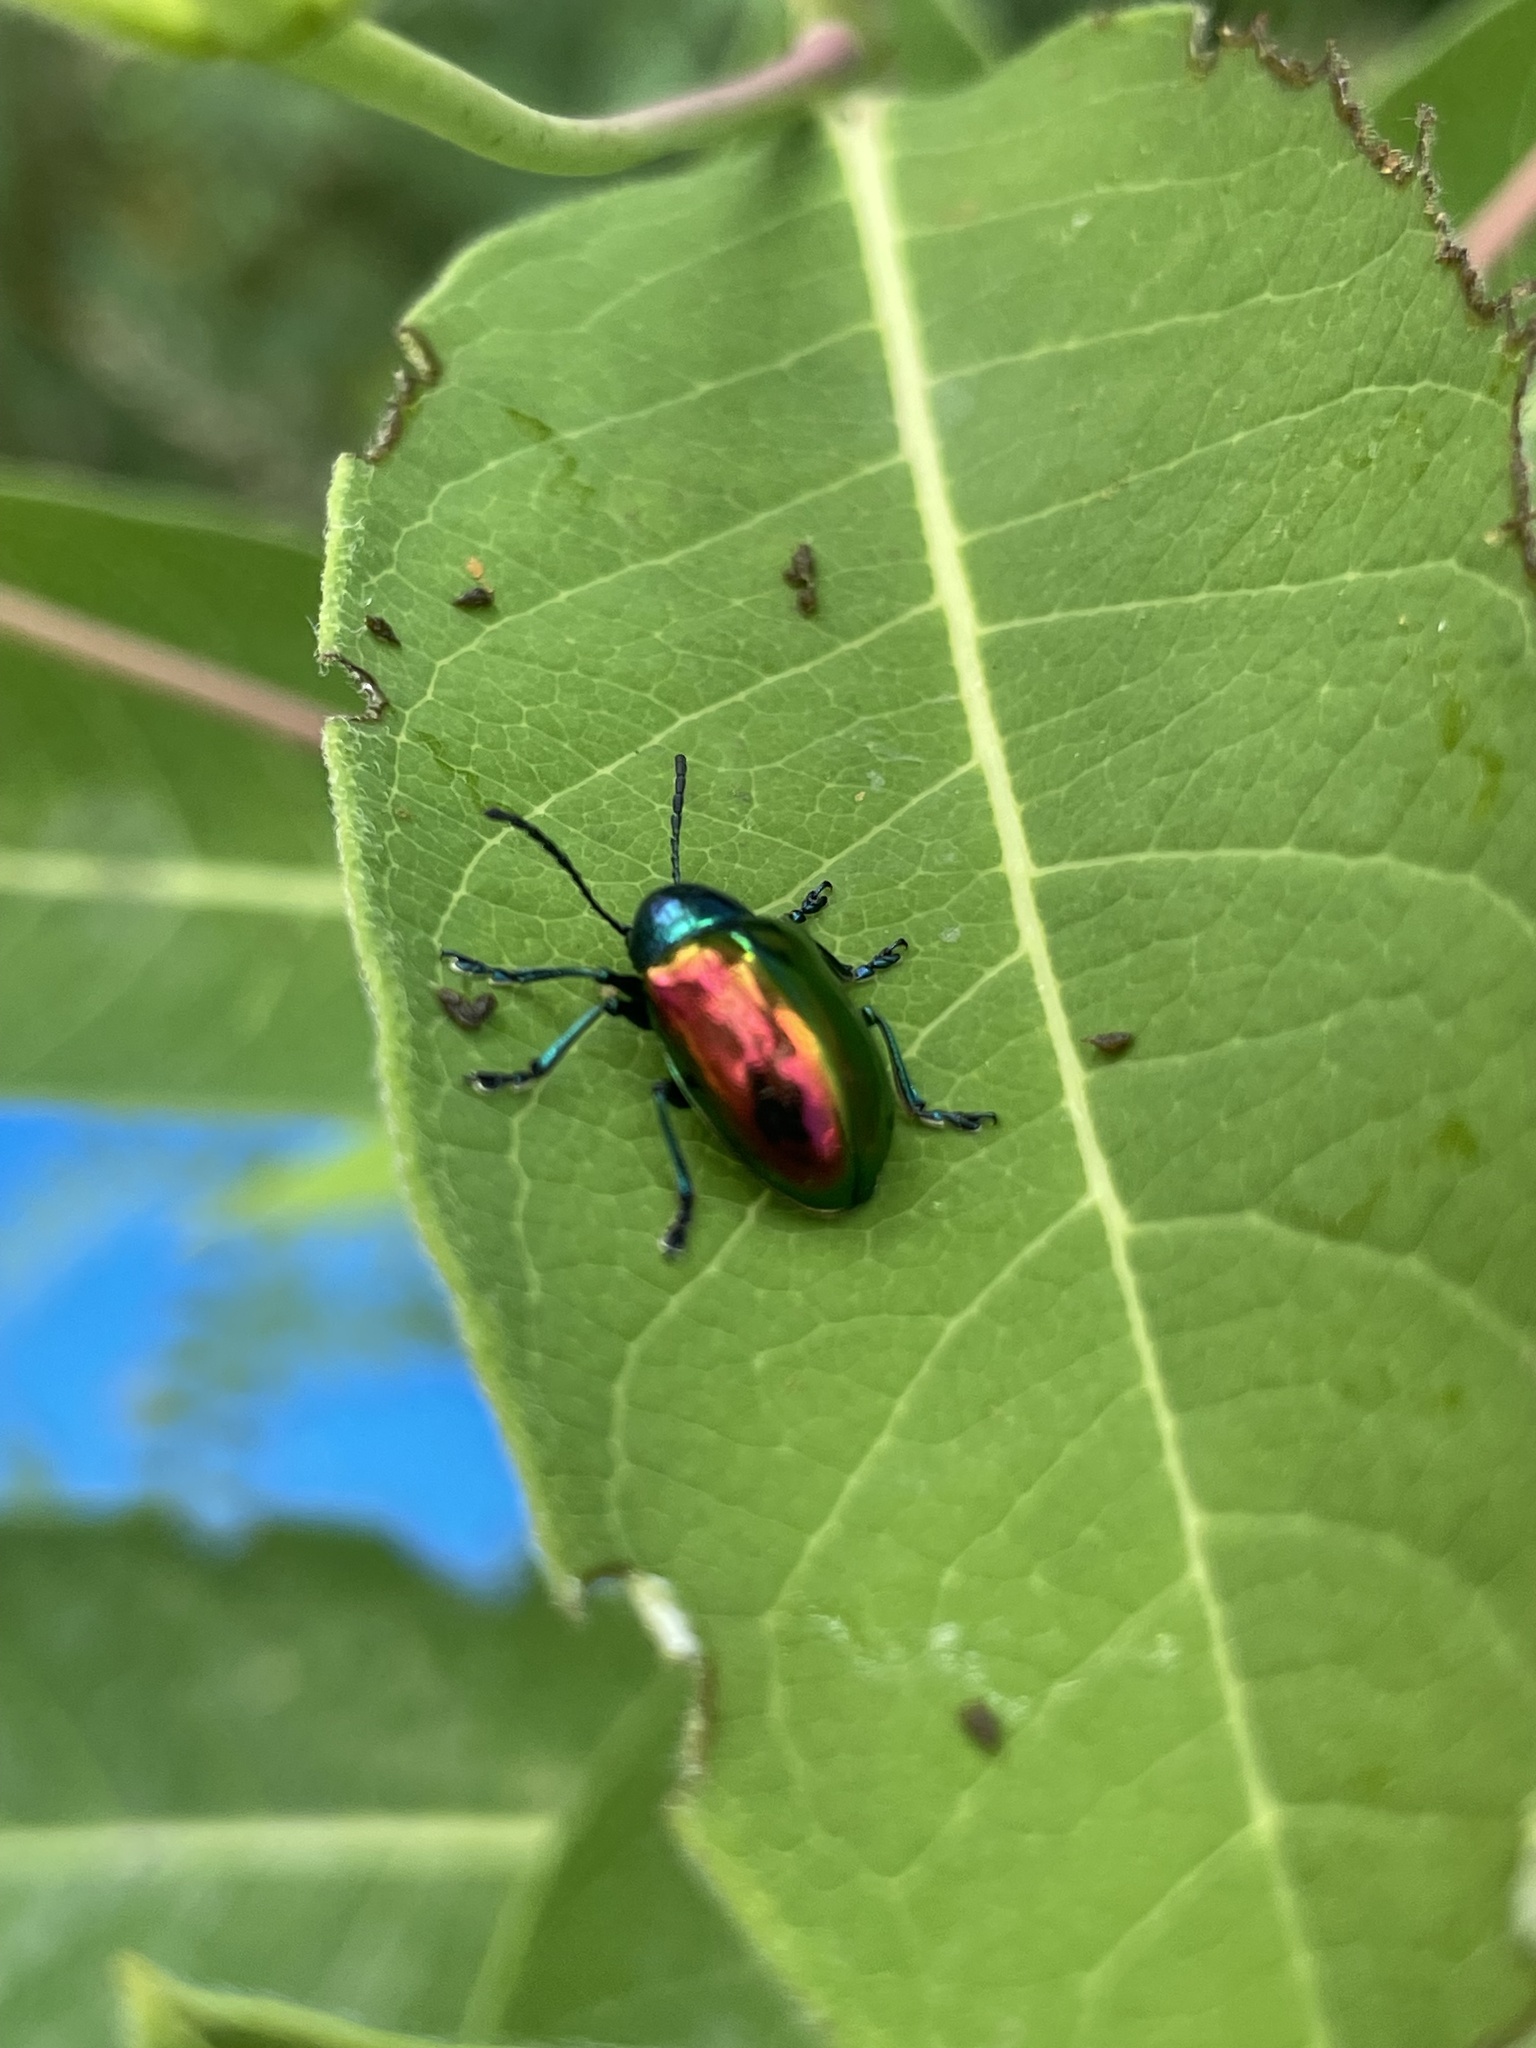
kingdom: Animalia
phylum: Arthropoda
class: Insecta
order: Coleoptera
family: Chrysomelidae
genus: Chrysochus
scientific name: Chrysochus auratus
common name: Dogbane leaf beetle
